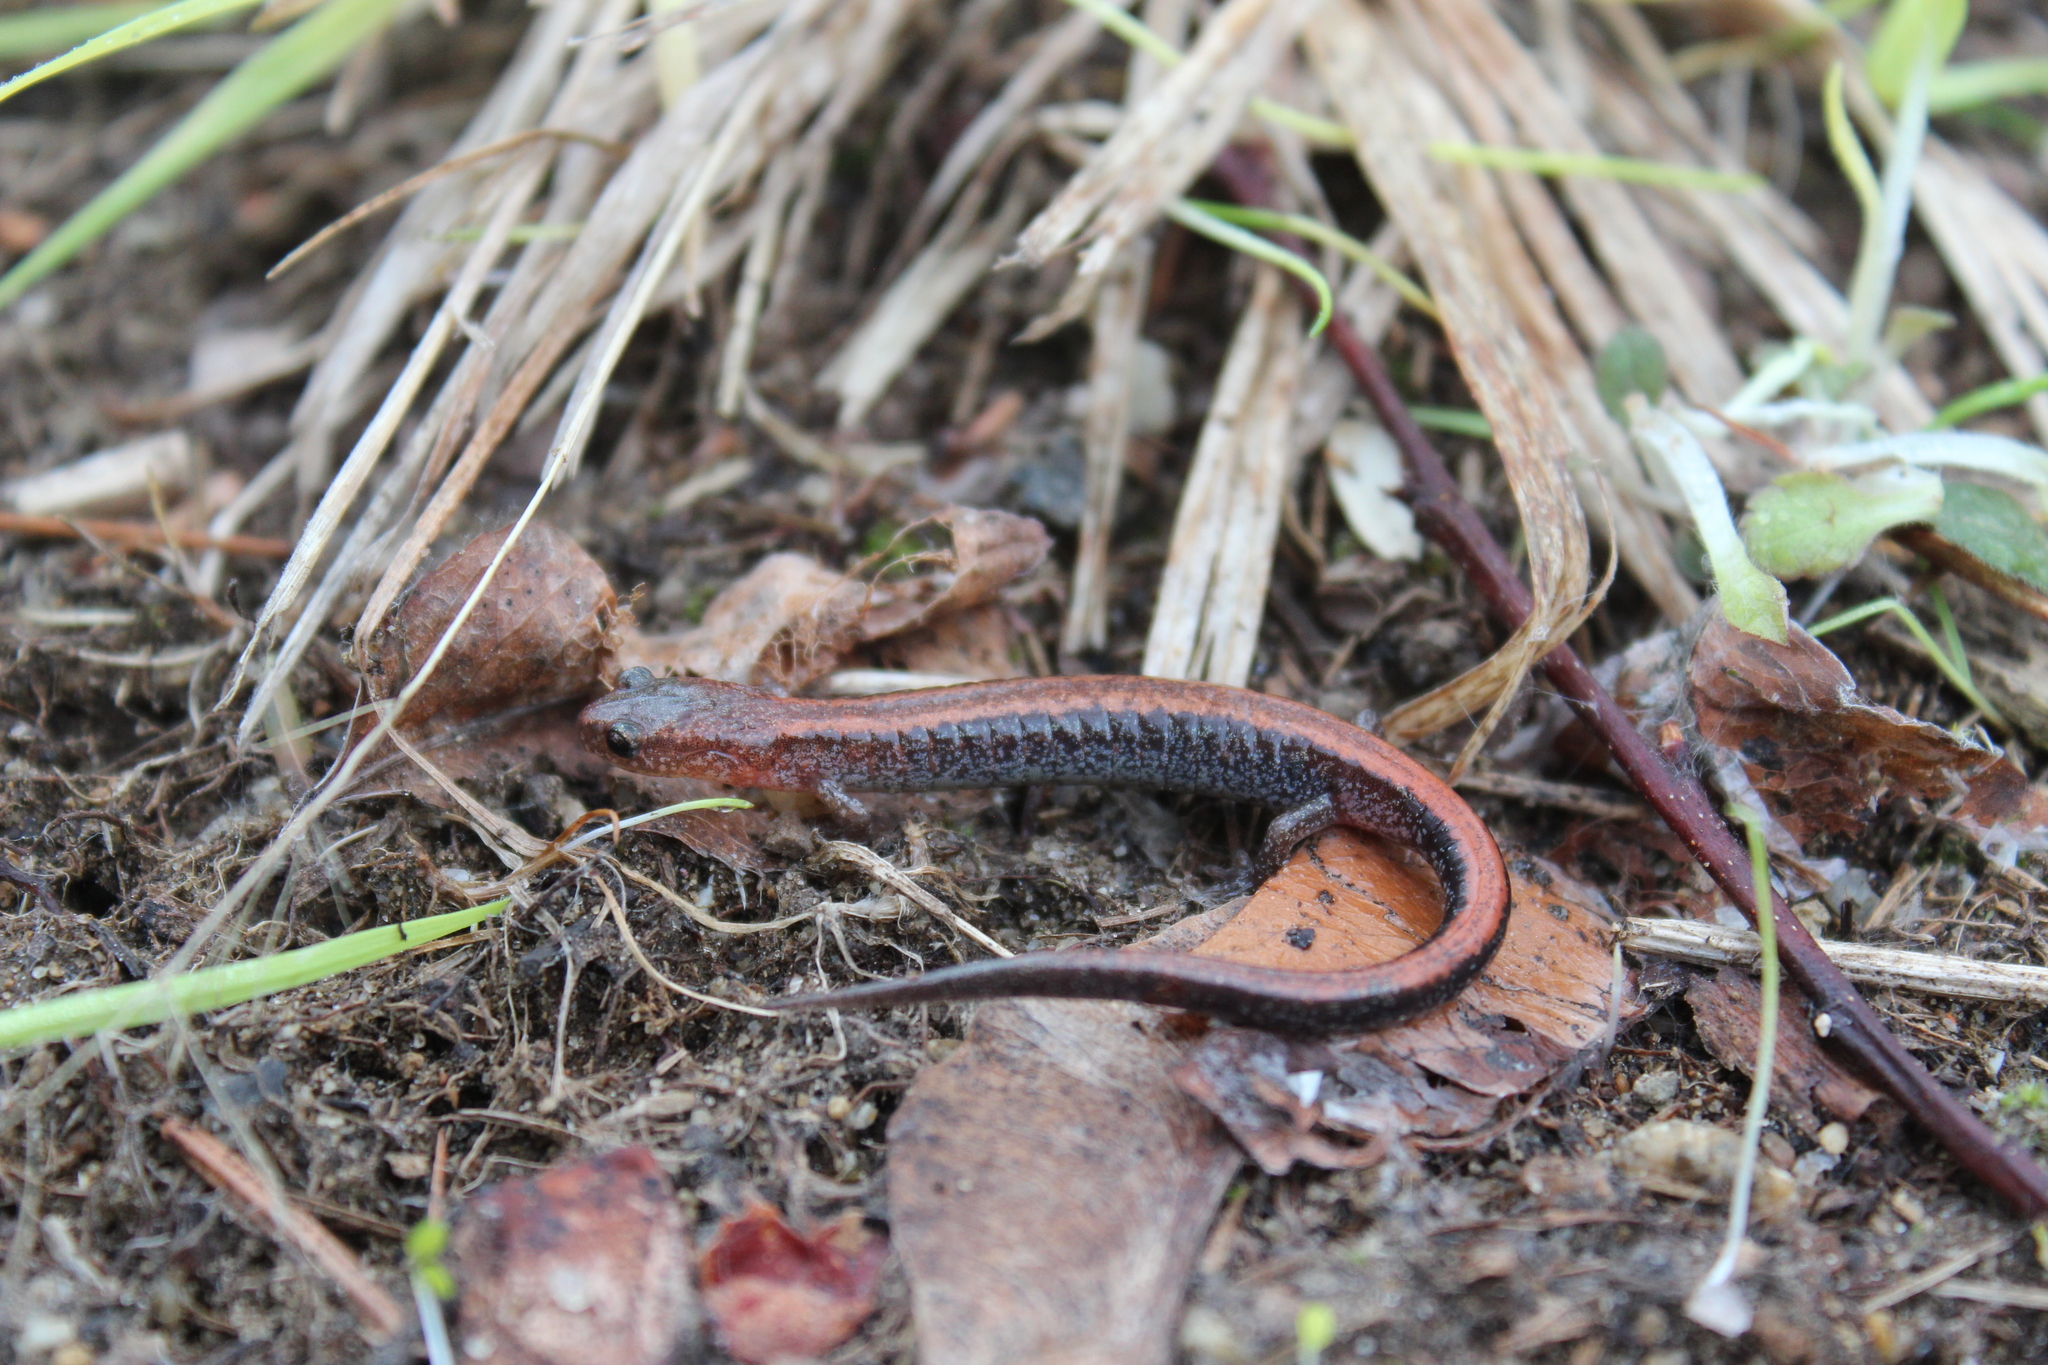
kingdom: Animalia
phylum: Chordata
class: Amphibia
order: Caudata
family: Plethodontidae
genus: Plethodon
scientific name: Plethodon cinereus
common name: Redback salamander
